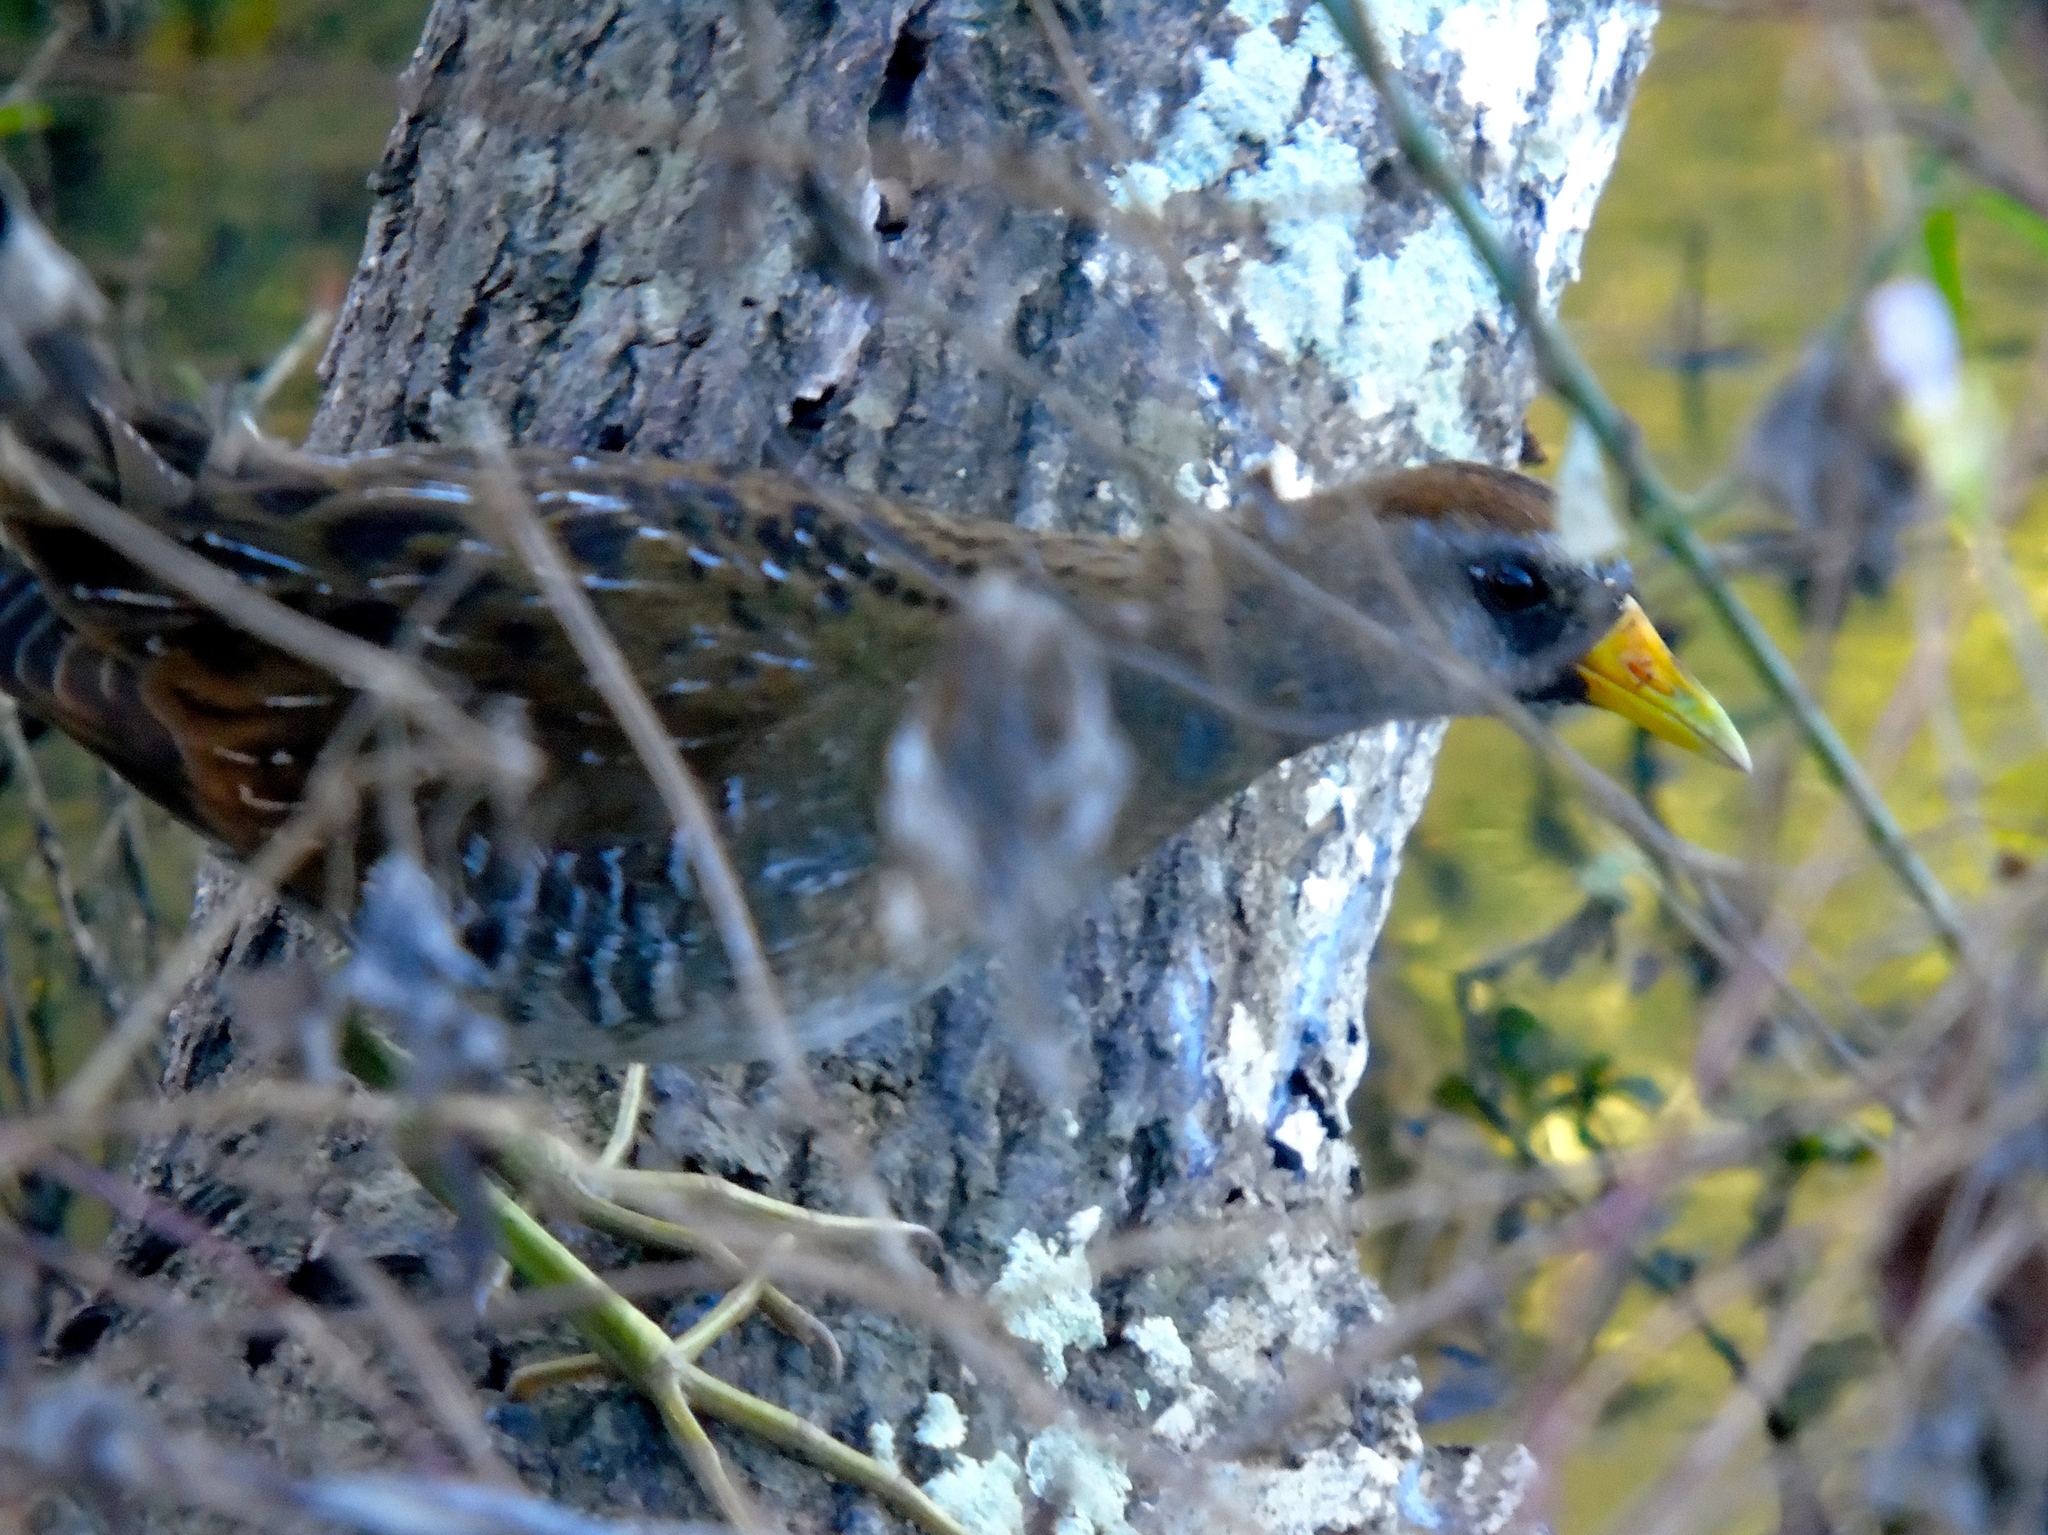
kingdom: Animalia
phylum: Chordata
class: Aves
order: Gruiformes
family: Rallidae
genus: Porzana
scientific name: Porzana carolina
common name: Sora
